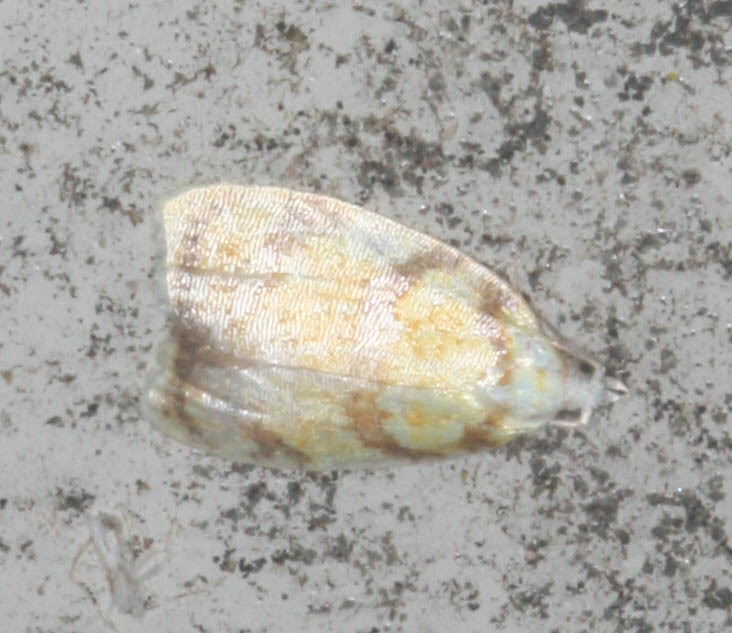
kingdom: Animalia
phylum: Arthropoda
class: Insecta
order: Lepidoptera
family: Tortricidae
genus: Acleris
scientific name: Acleris albicomana
